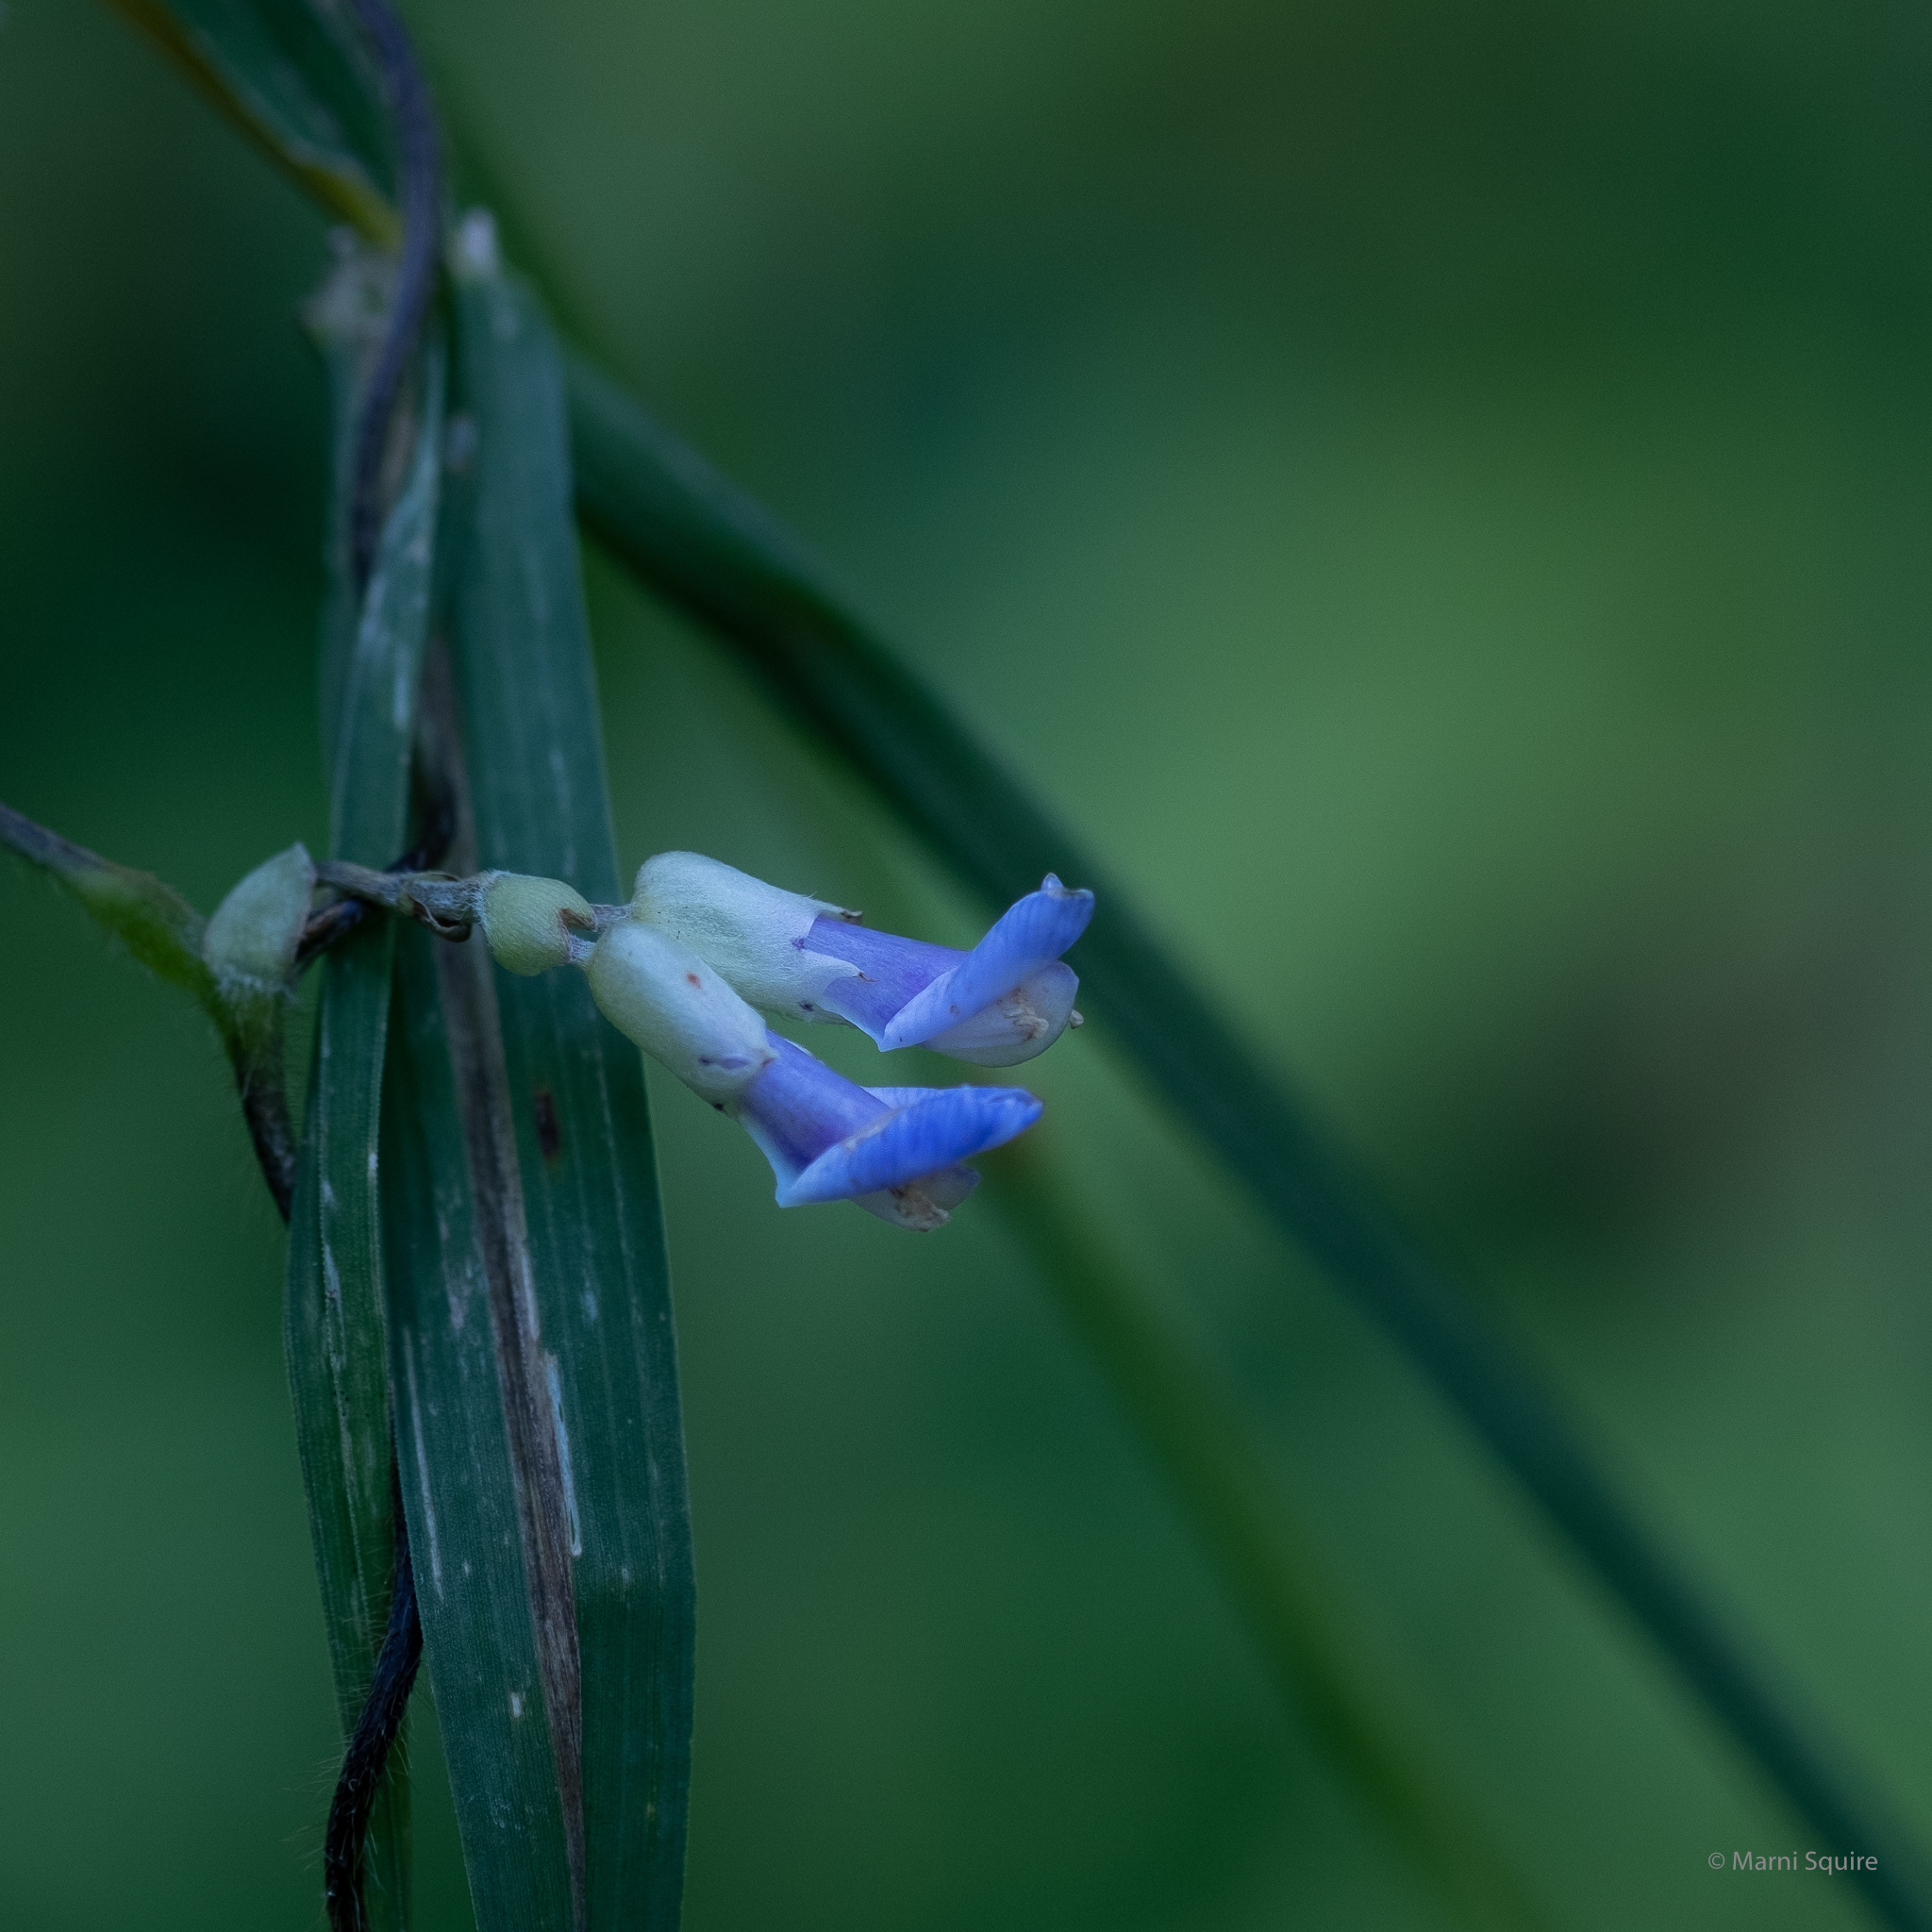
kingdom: Plantae
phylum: Tracheophyta
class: Magnoliopsida
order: Fabales
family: Fabaceae
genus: Amphicarpaea
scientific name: Amphicarpaea bracteata
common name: American hog peanut
